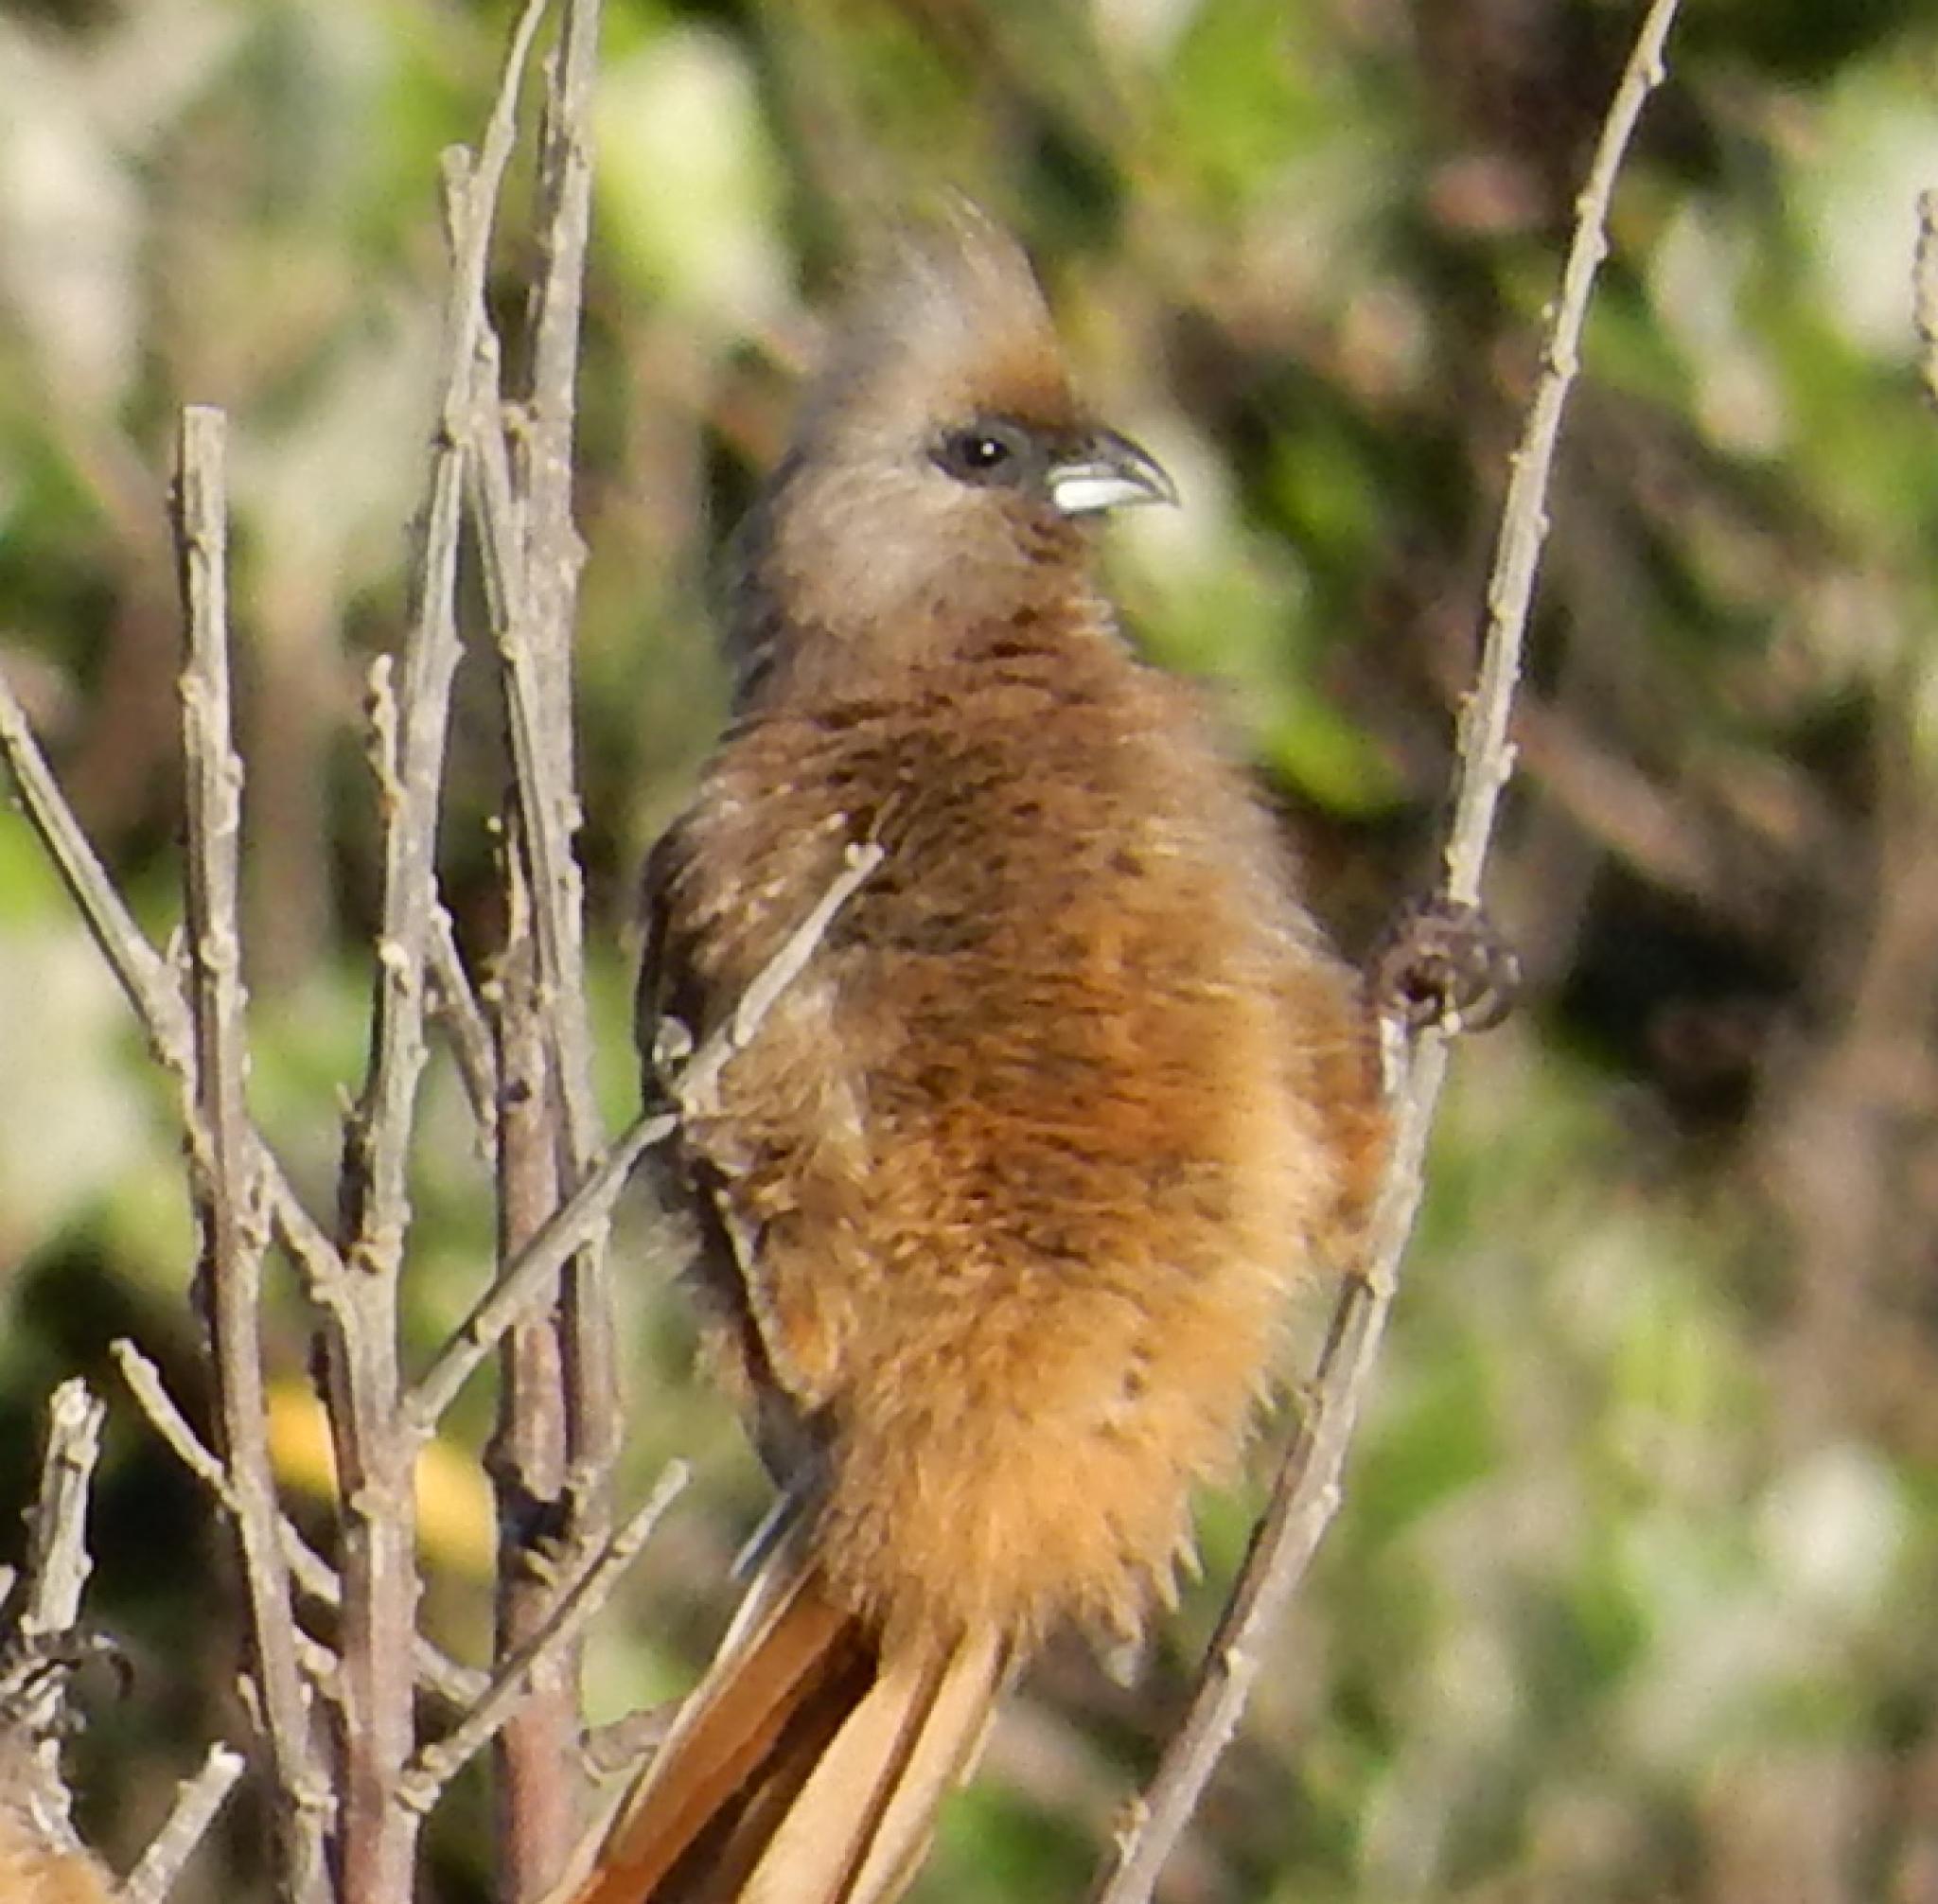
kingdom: Animalia
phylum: Chordata
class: Aves
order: Coliiformes
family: Coliidae
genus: Colius
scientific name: Colius striatus
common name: Speckled mousebird
